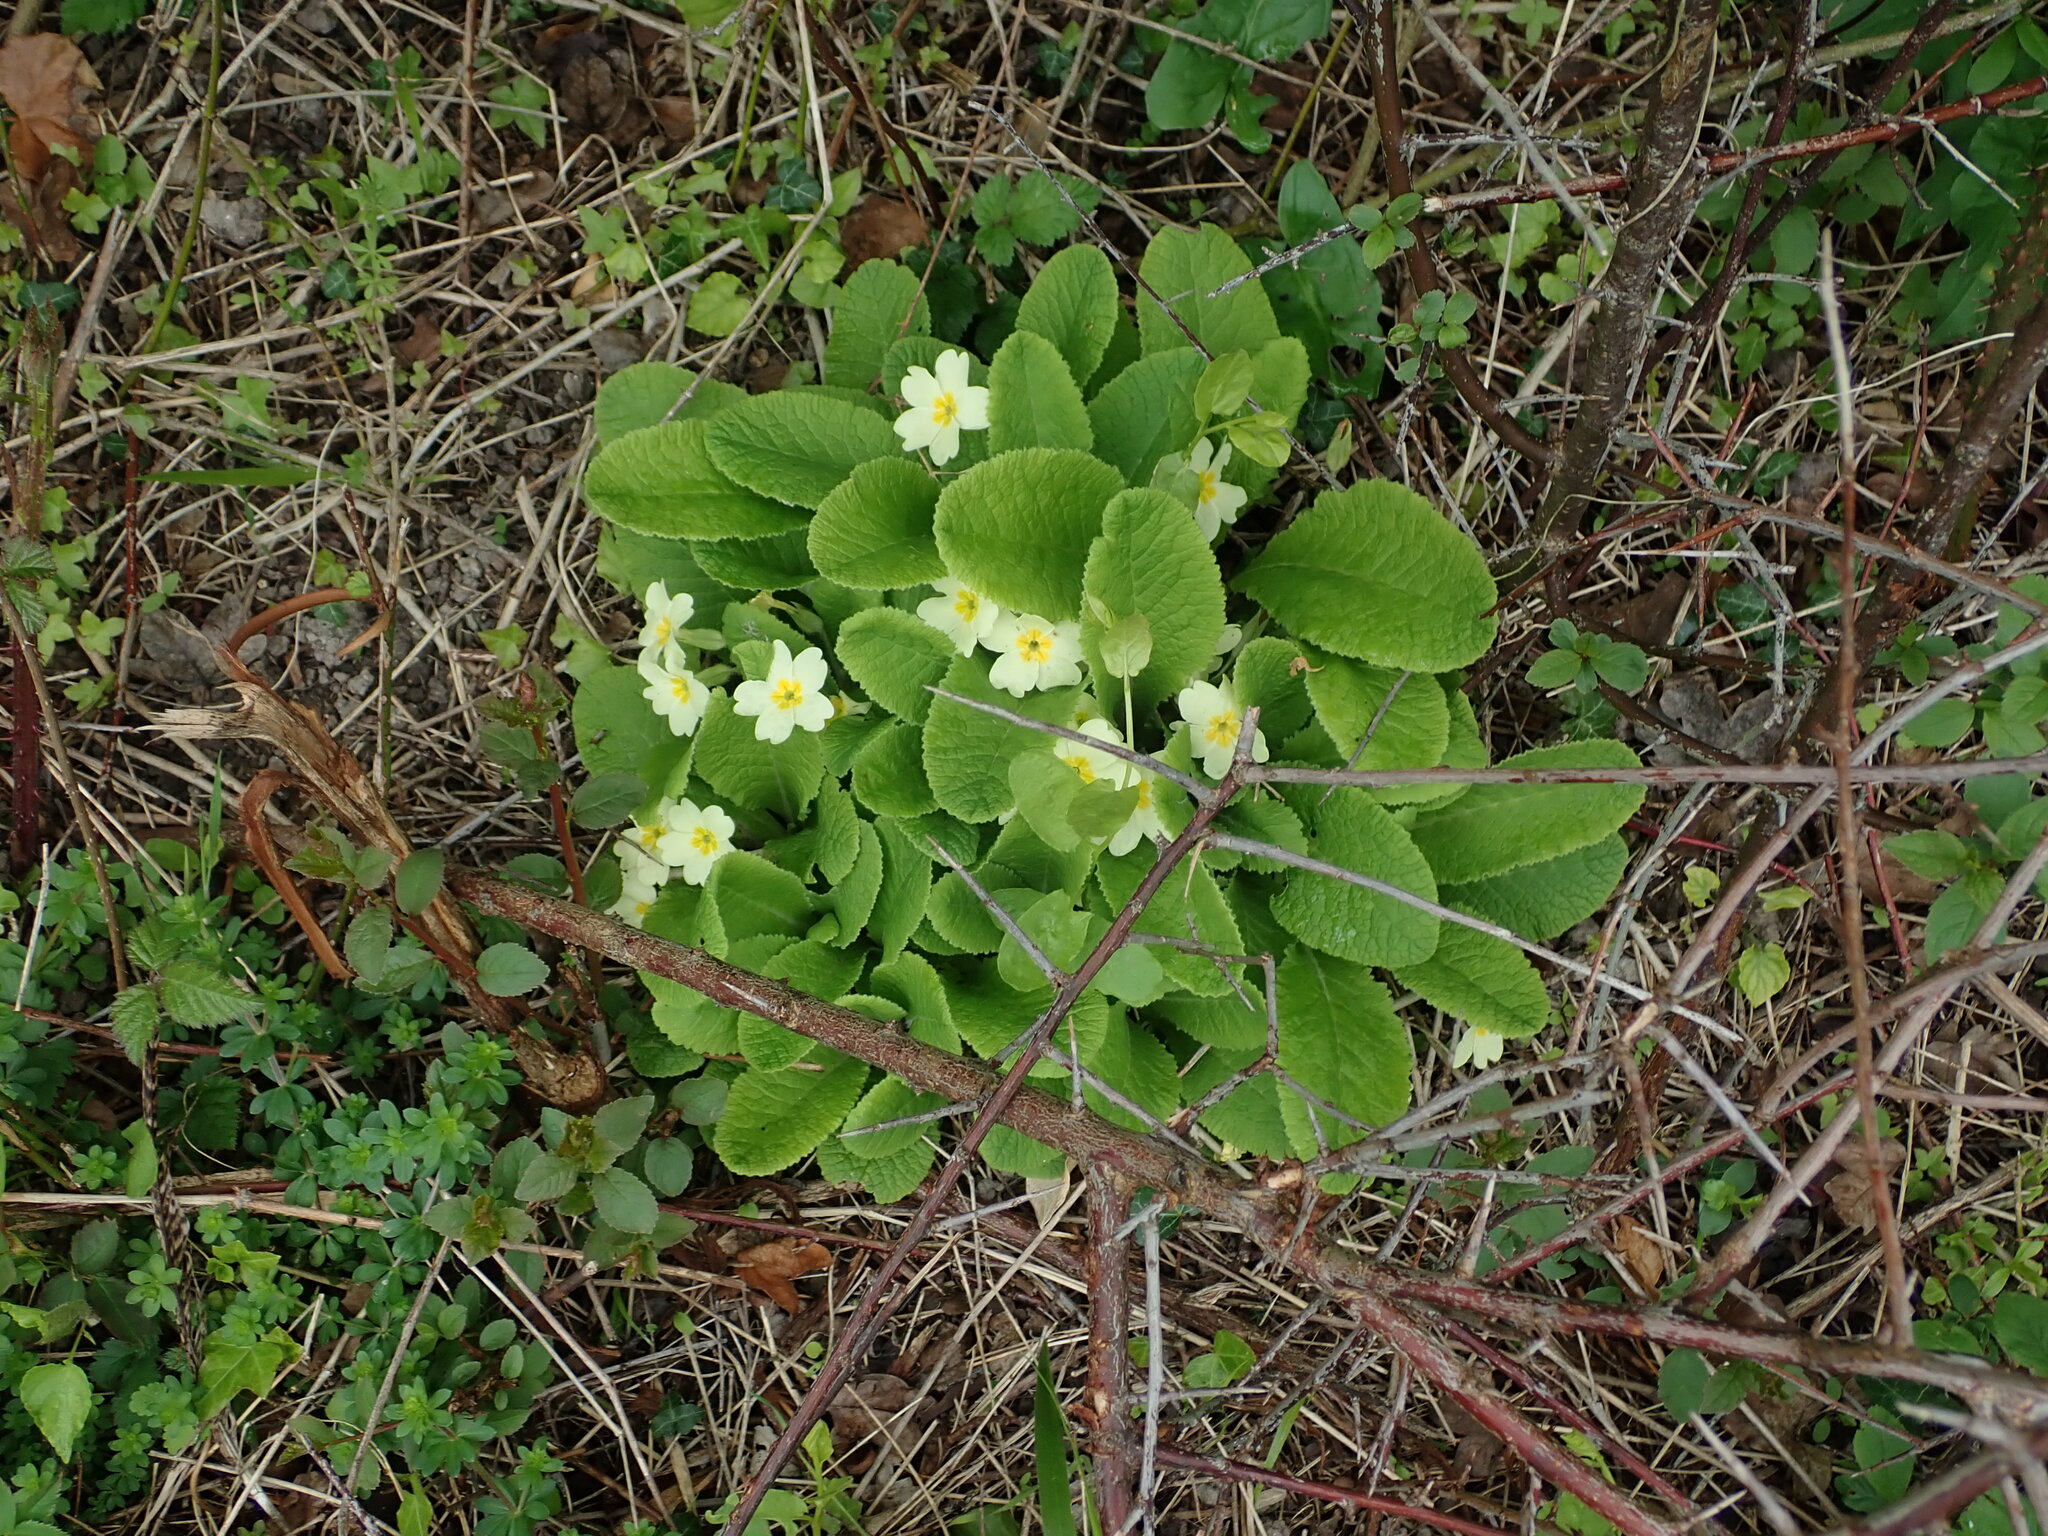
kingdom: Plantae
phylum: Tracheophyta
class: Magnoliopsida
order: Ericales
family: Primulaceae
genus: Primula
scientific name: Primula vulgaris
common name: Primrose
